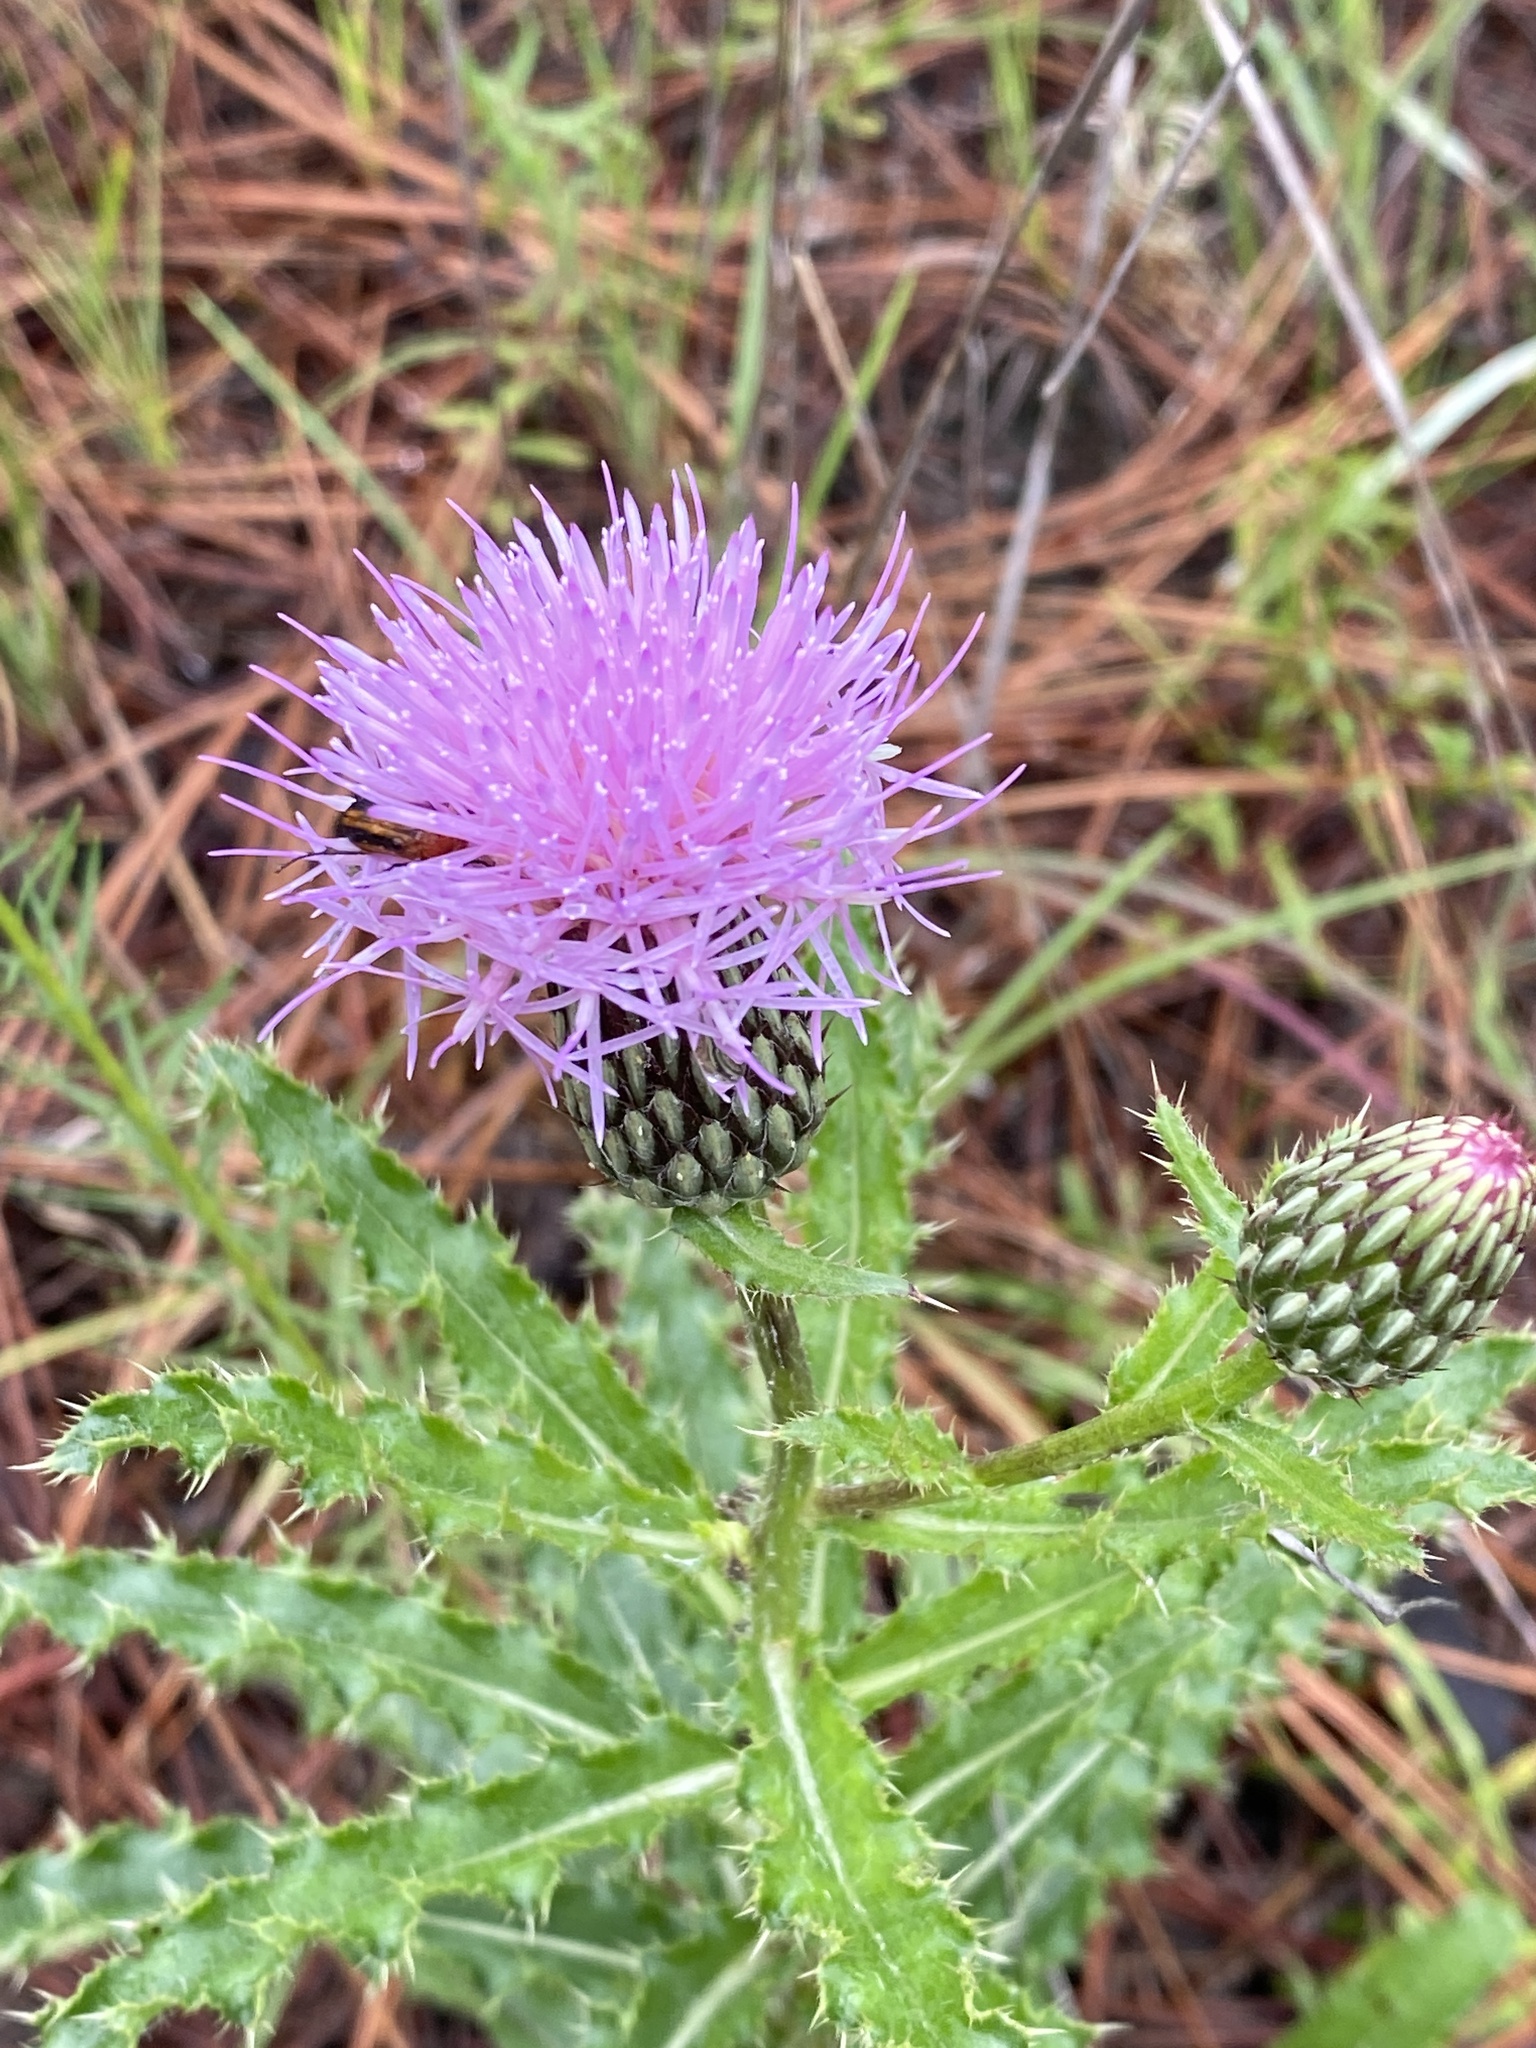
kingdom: Plantae
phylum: Tracheophyta
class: Magnoliopsida
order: Asterales
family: Asteraceae
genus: Cirsium
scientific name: Cirsium repandum
